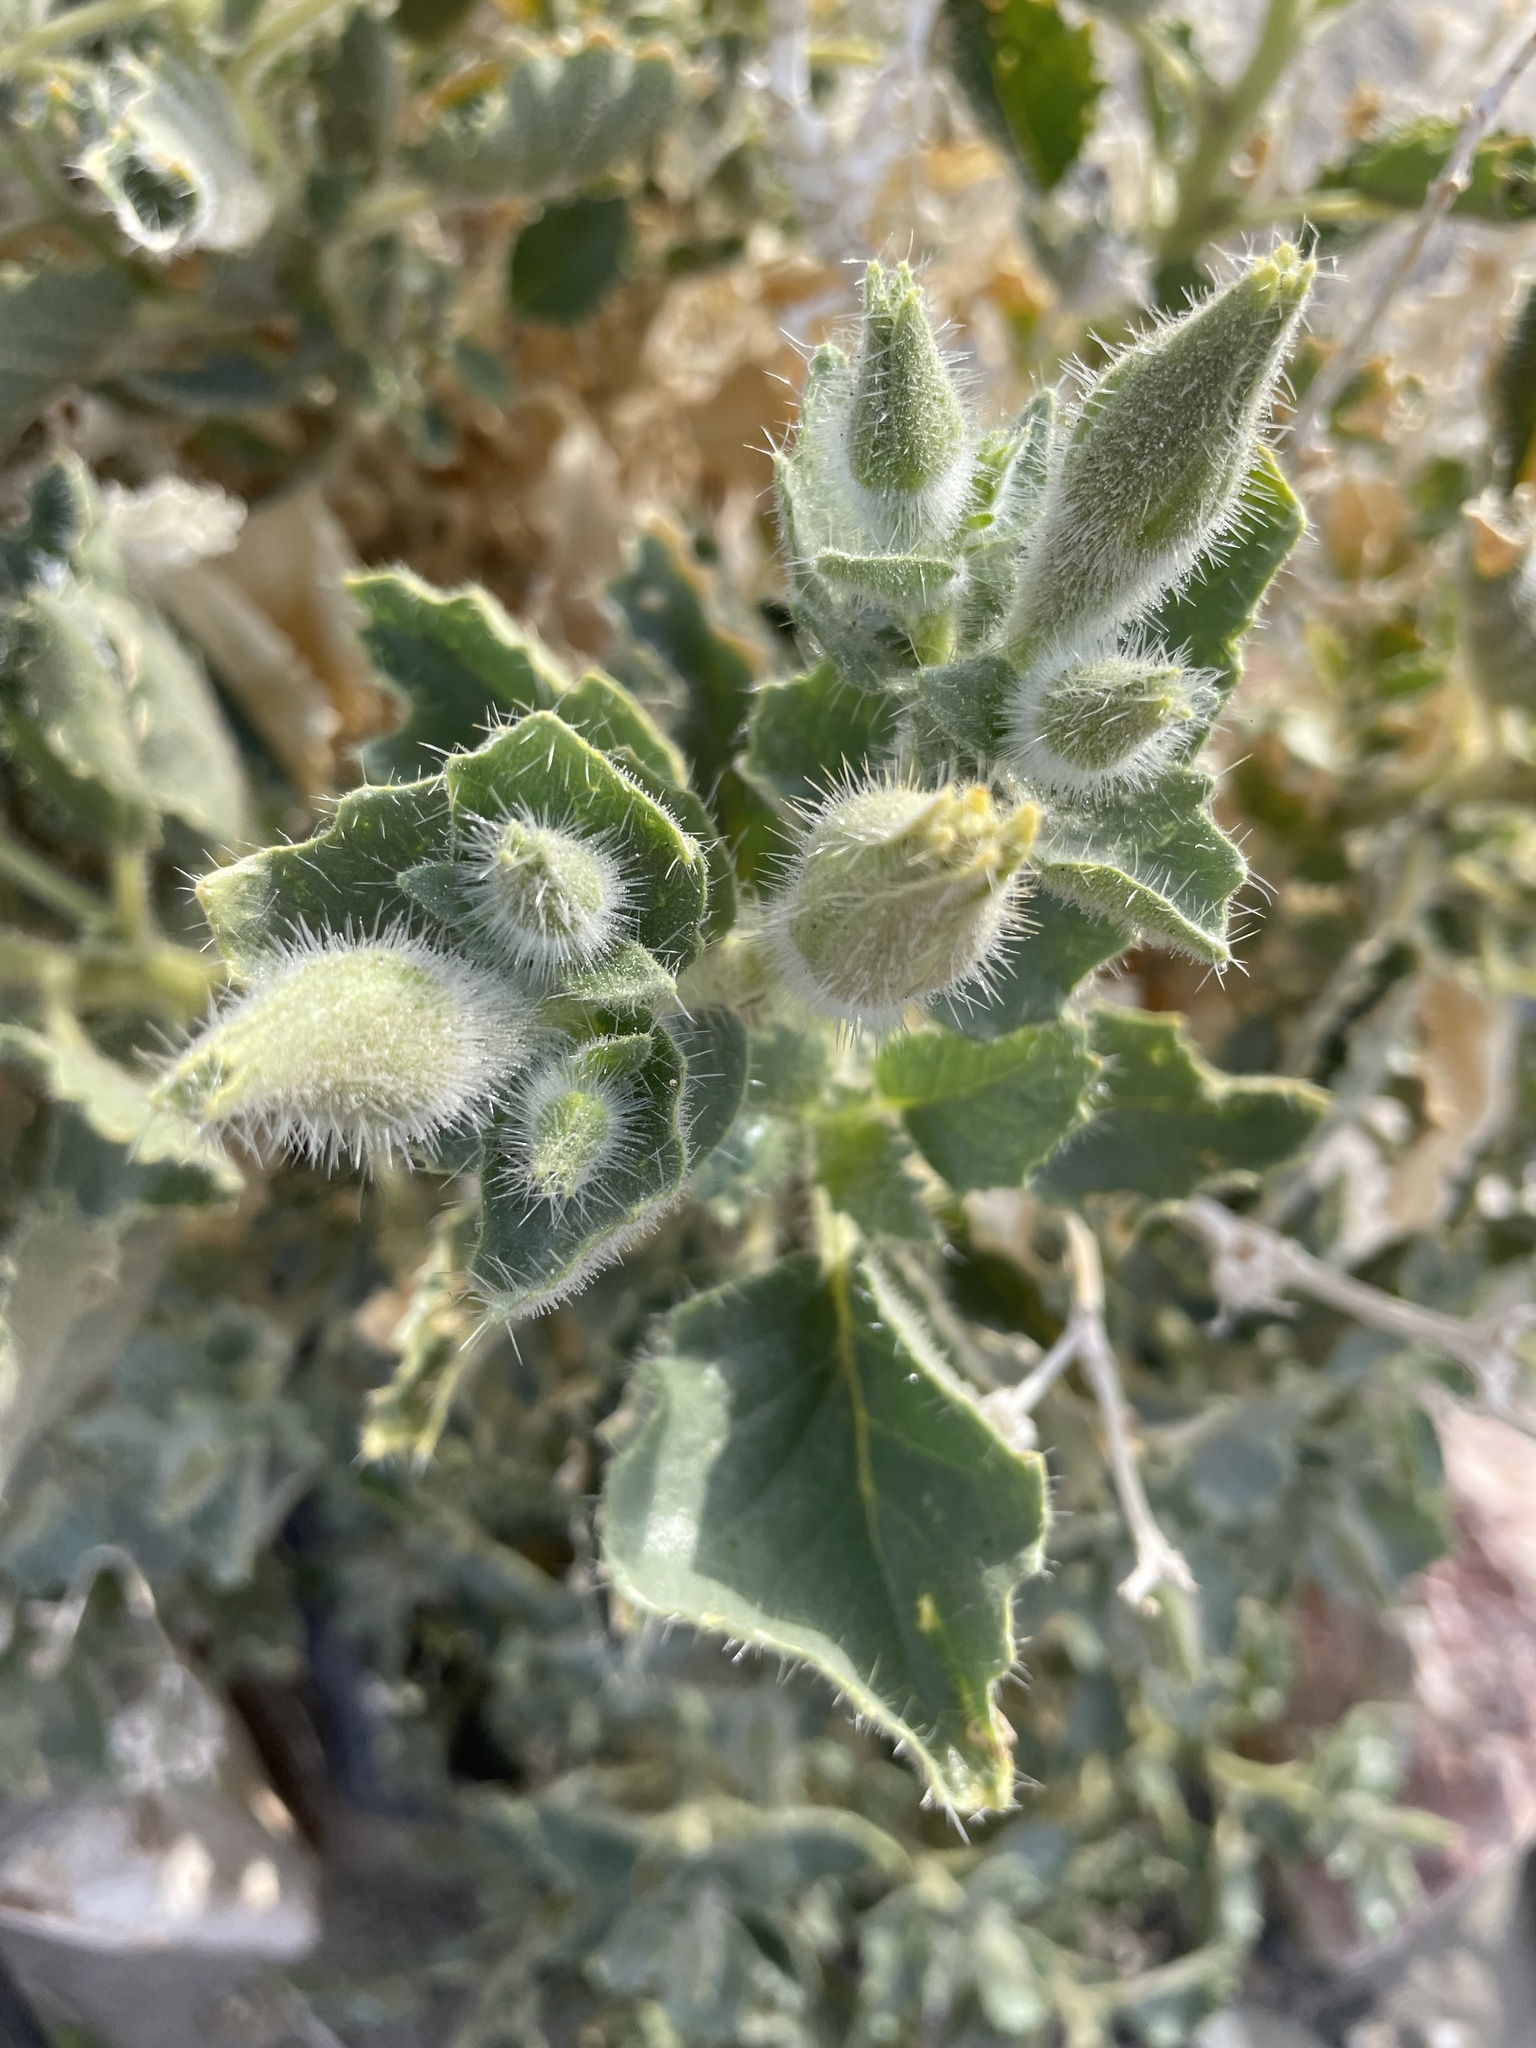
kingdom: Plantae
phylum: Tracheophyta
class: Magnoliopsida
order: Cornales
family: Loasaceae
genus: Eucnide
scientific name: Eucnide urens
